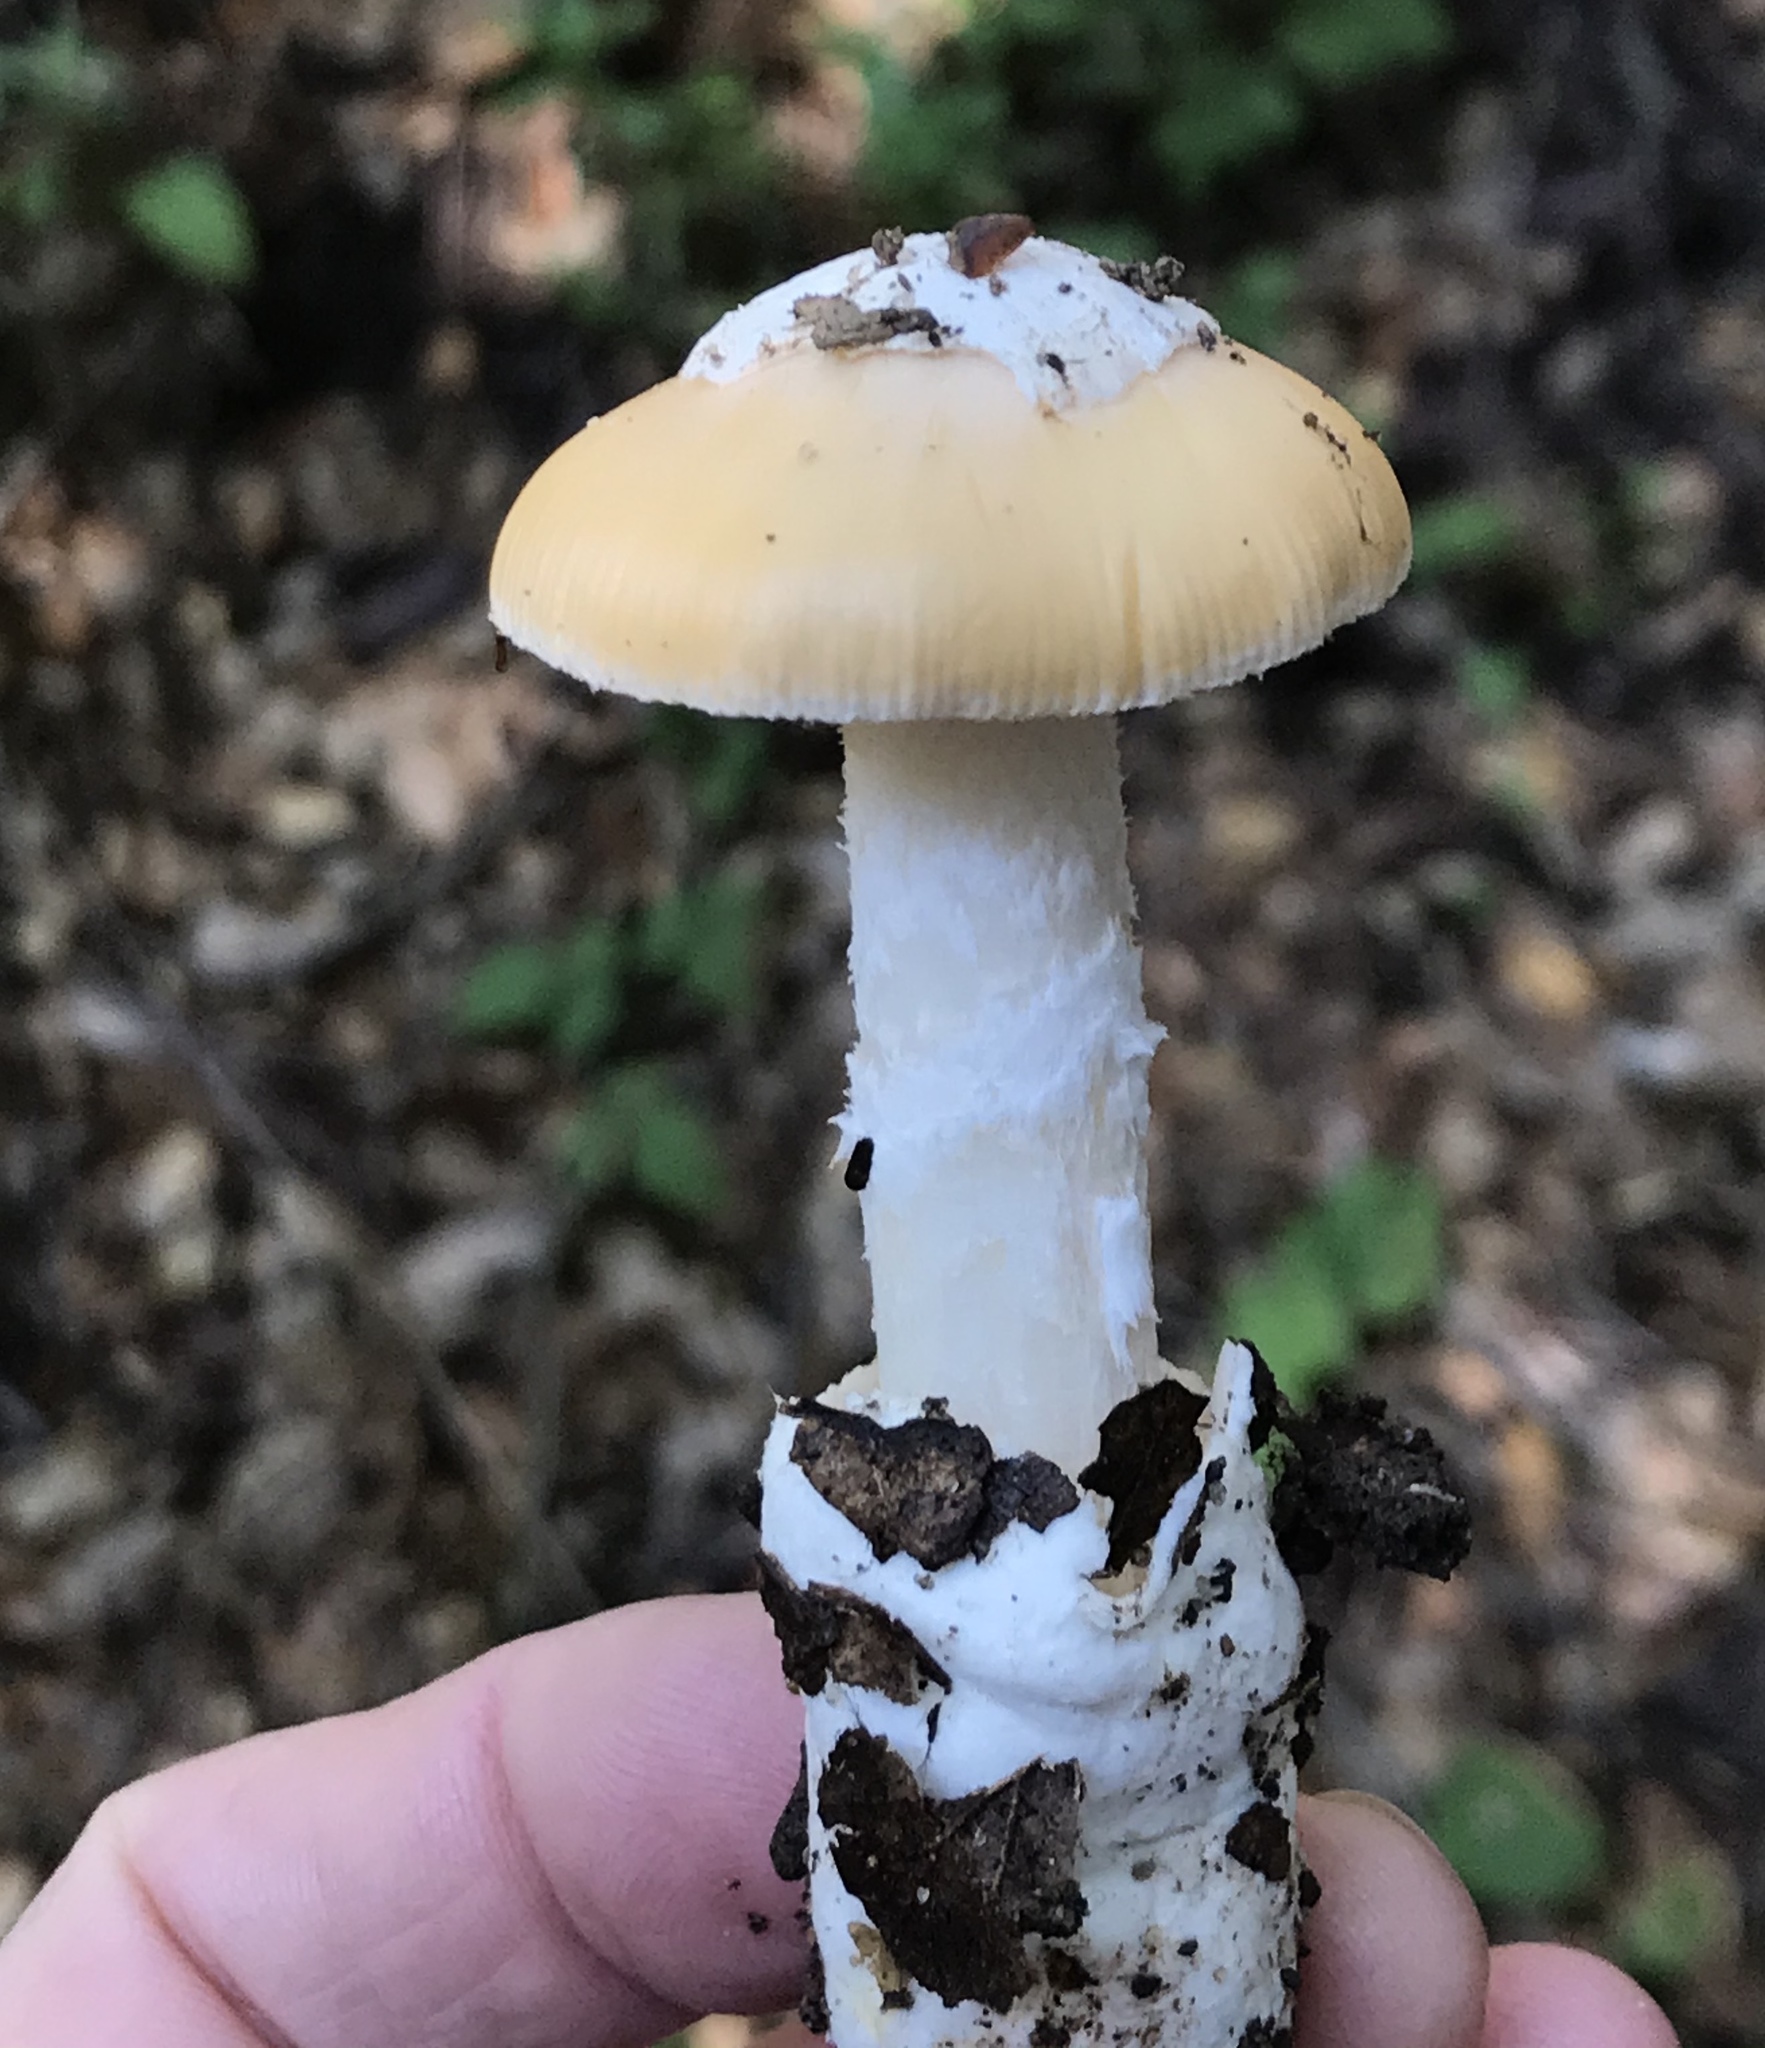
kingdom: Fungi
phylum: Basidiomycota
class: Agaricomycetes
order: Agaricales
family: Amanitaceae
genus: Amanita
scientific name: Amanita velosa
